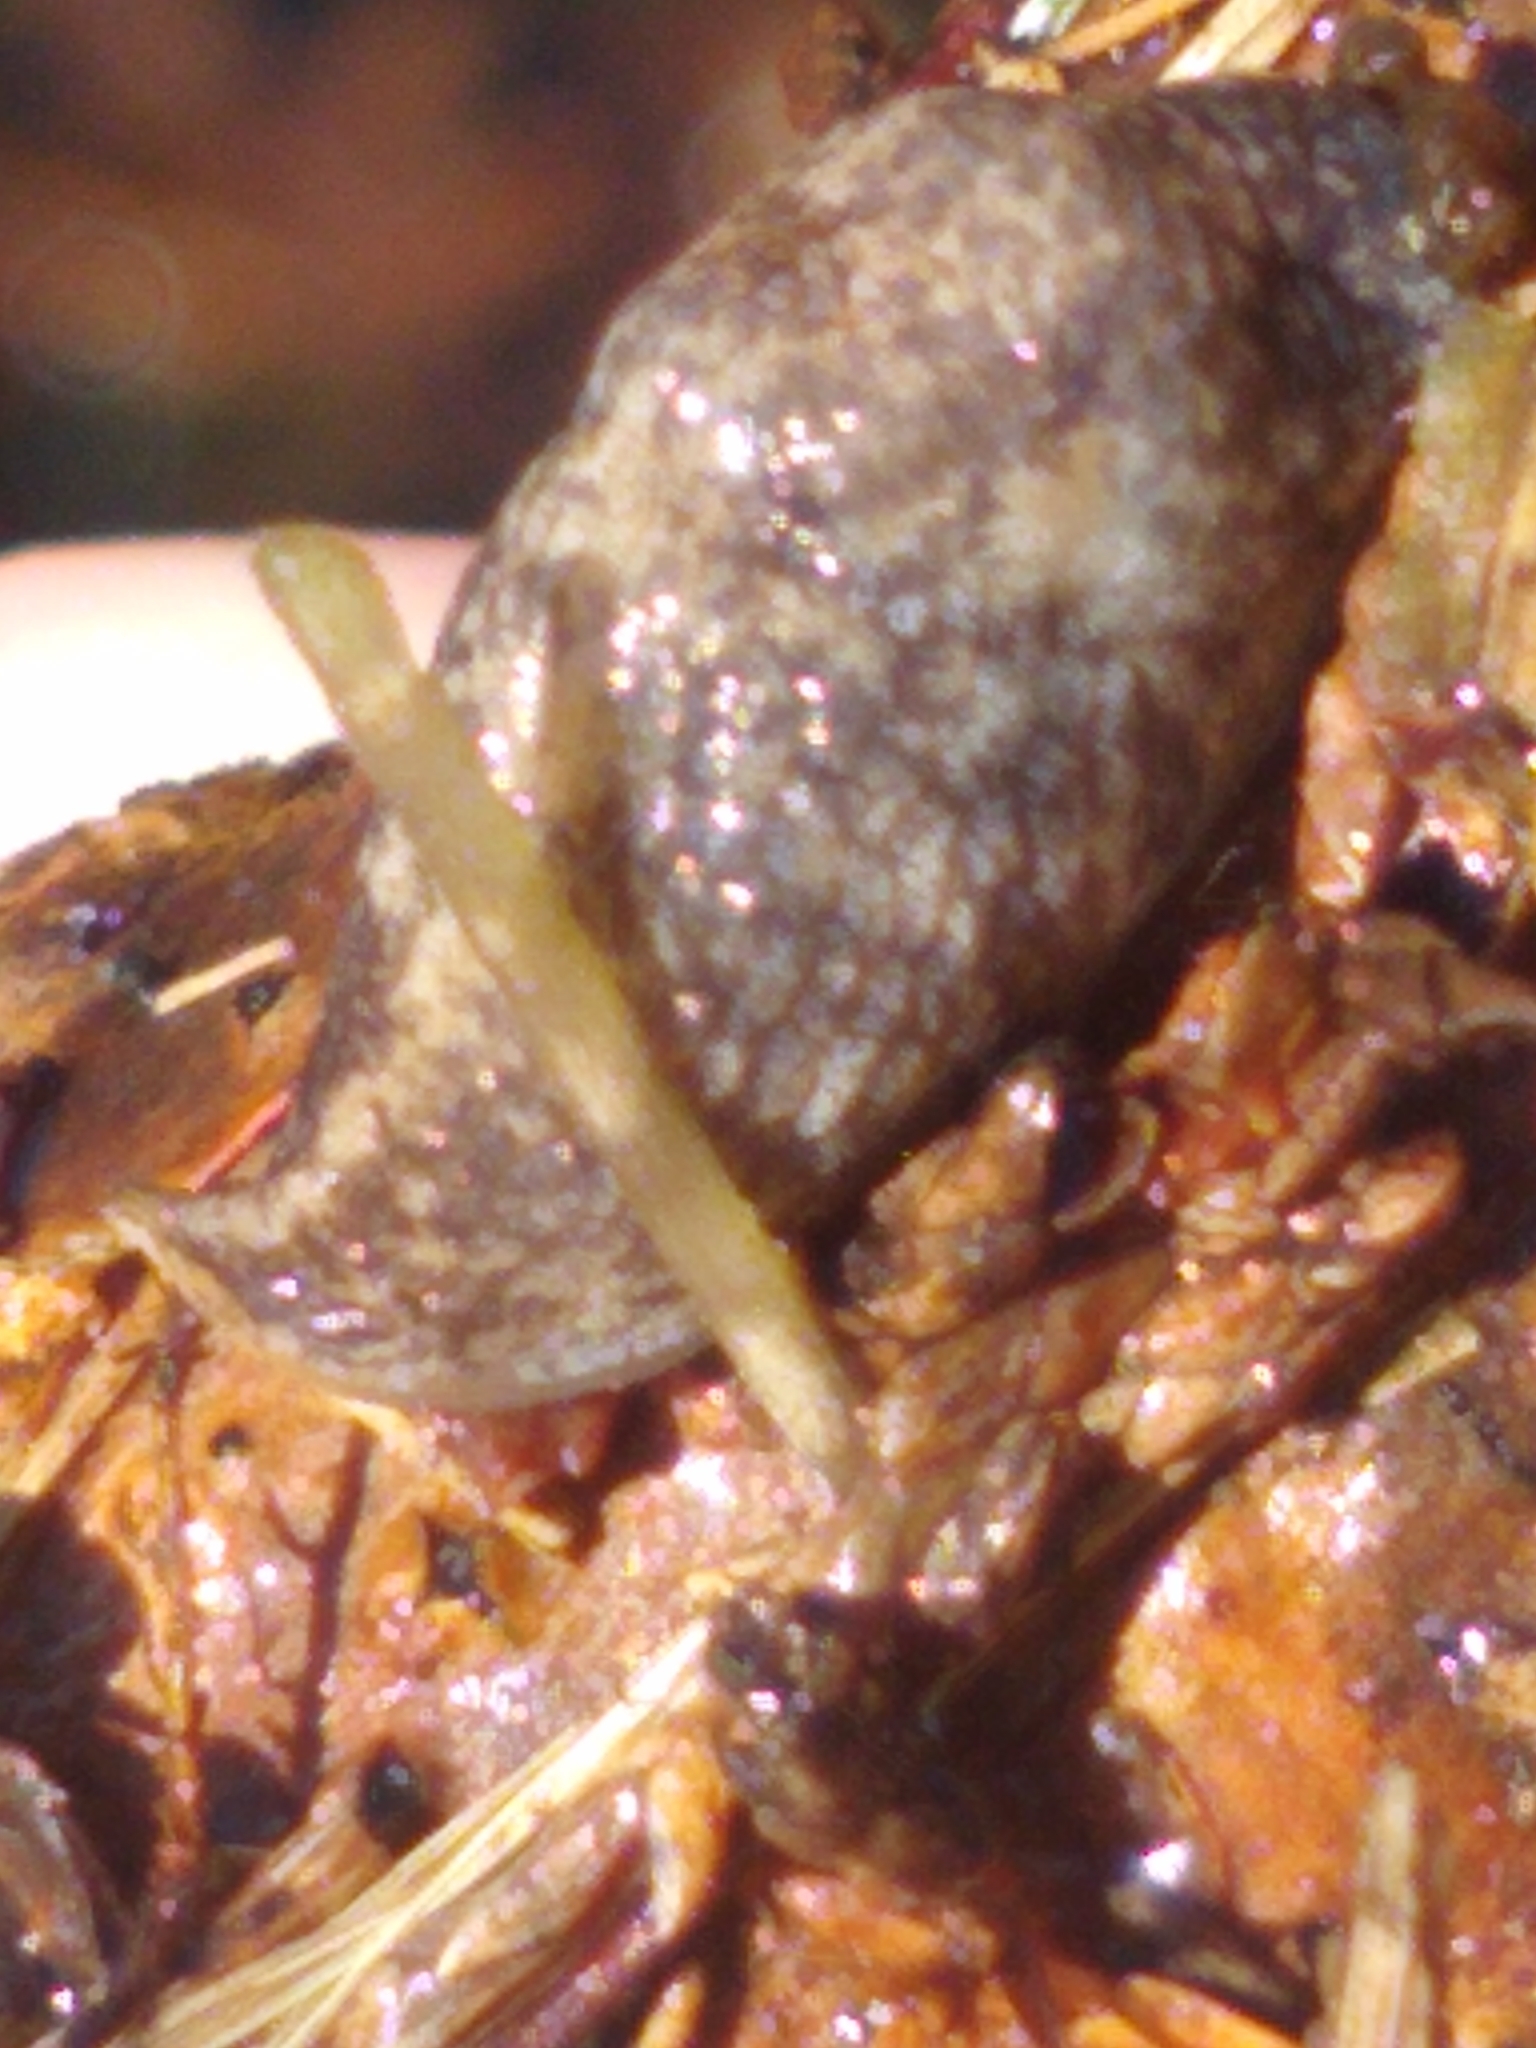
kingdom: Animalia
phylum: Mollusca
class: Gastropoda
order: Stylommatophora
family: Agriolimacidae
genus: Deroceras
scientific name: Deroceras reticulatum
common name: Gray field slug
